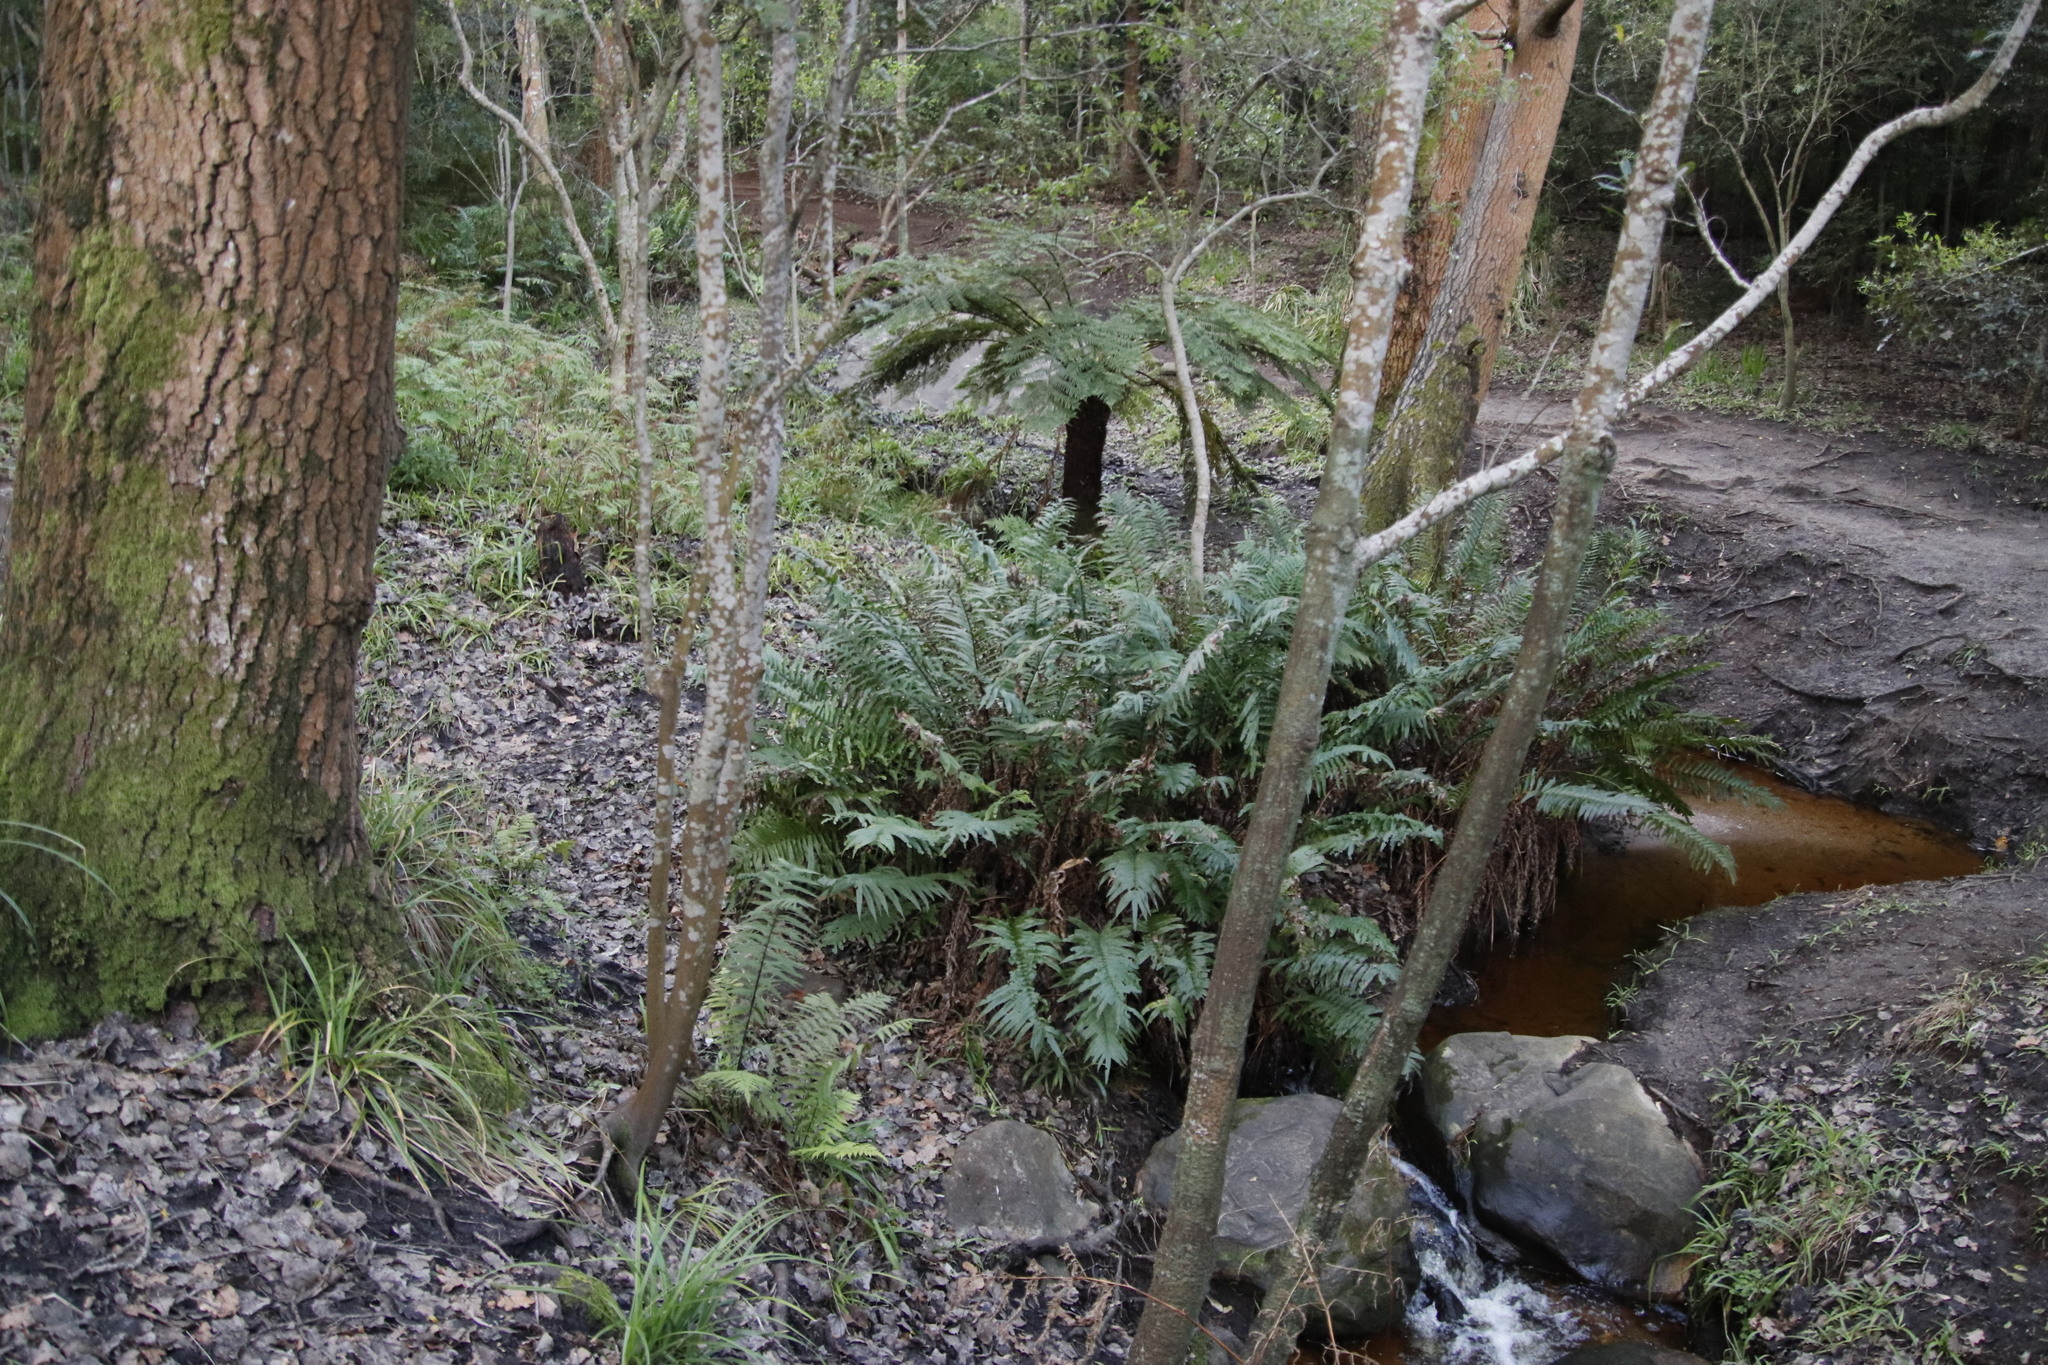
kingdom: Plantae
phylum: Tracheophyta
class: Polypodiopsida
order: Polypodiales
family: Blechnaceae
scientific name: Blechnaceae
